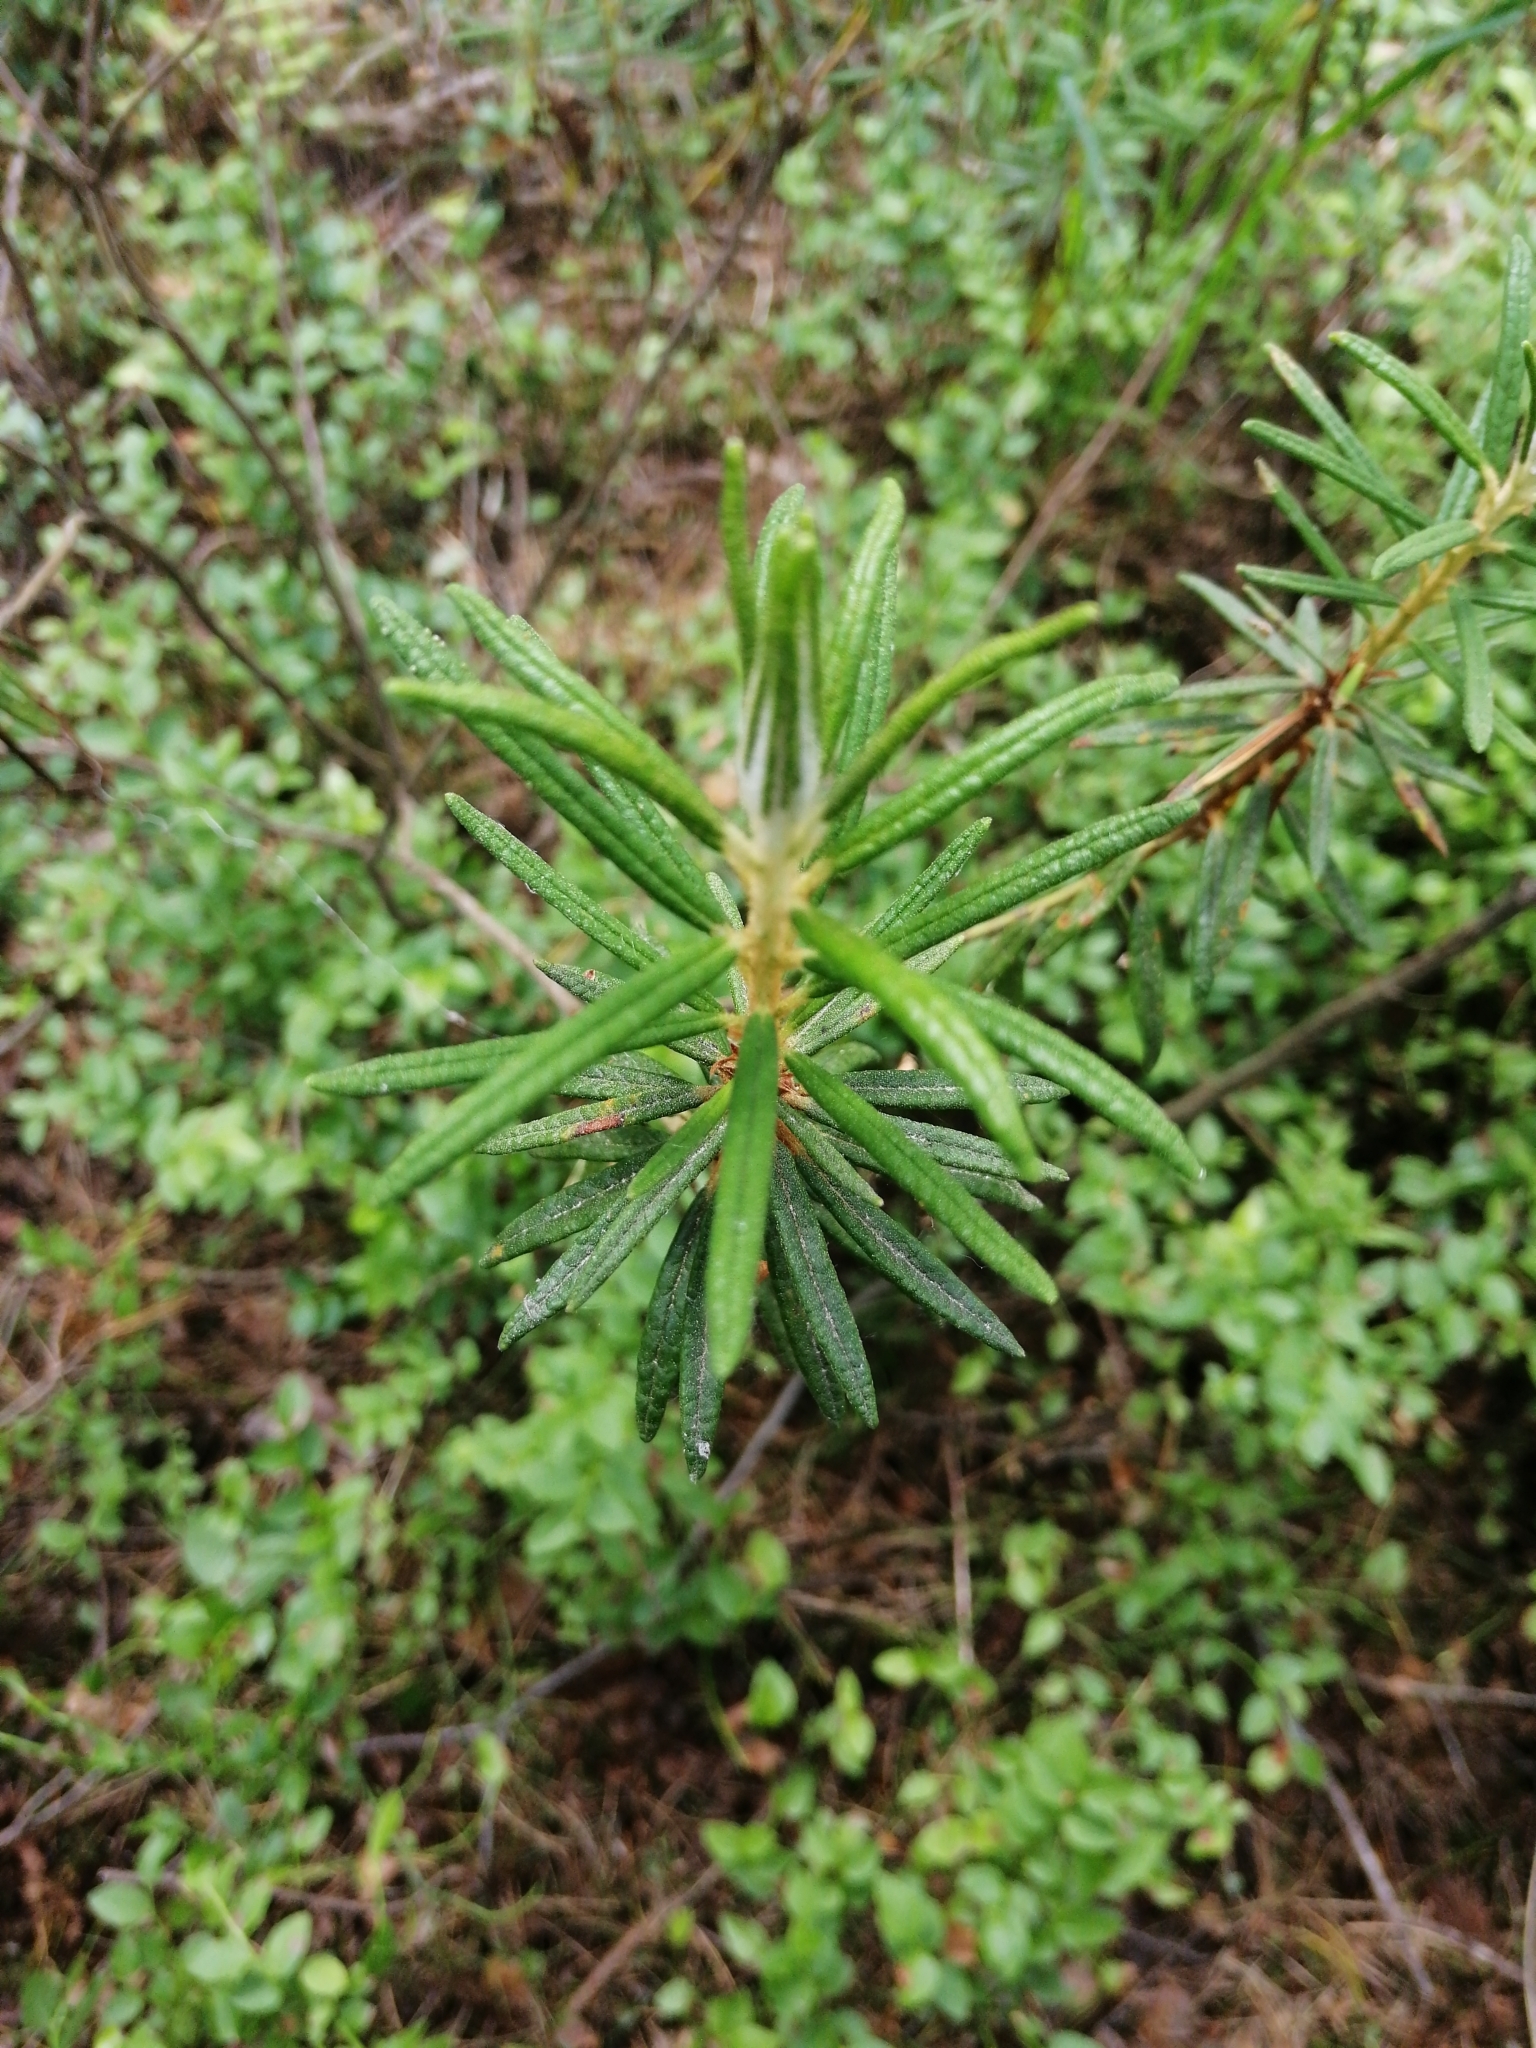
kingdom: Plantae
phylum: Tracheophyta
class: Magnoliopsida
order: Ericales
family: Ericaceae
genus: Rhododendron
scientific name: Rhododendron tomentosum
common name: Marsh labrador tea
